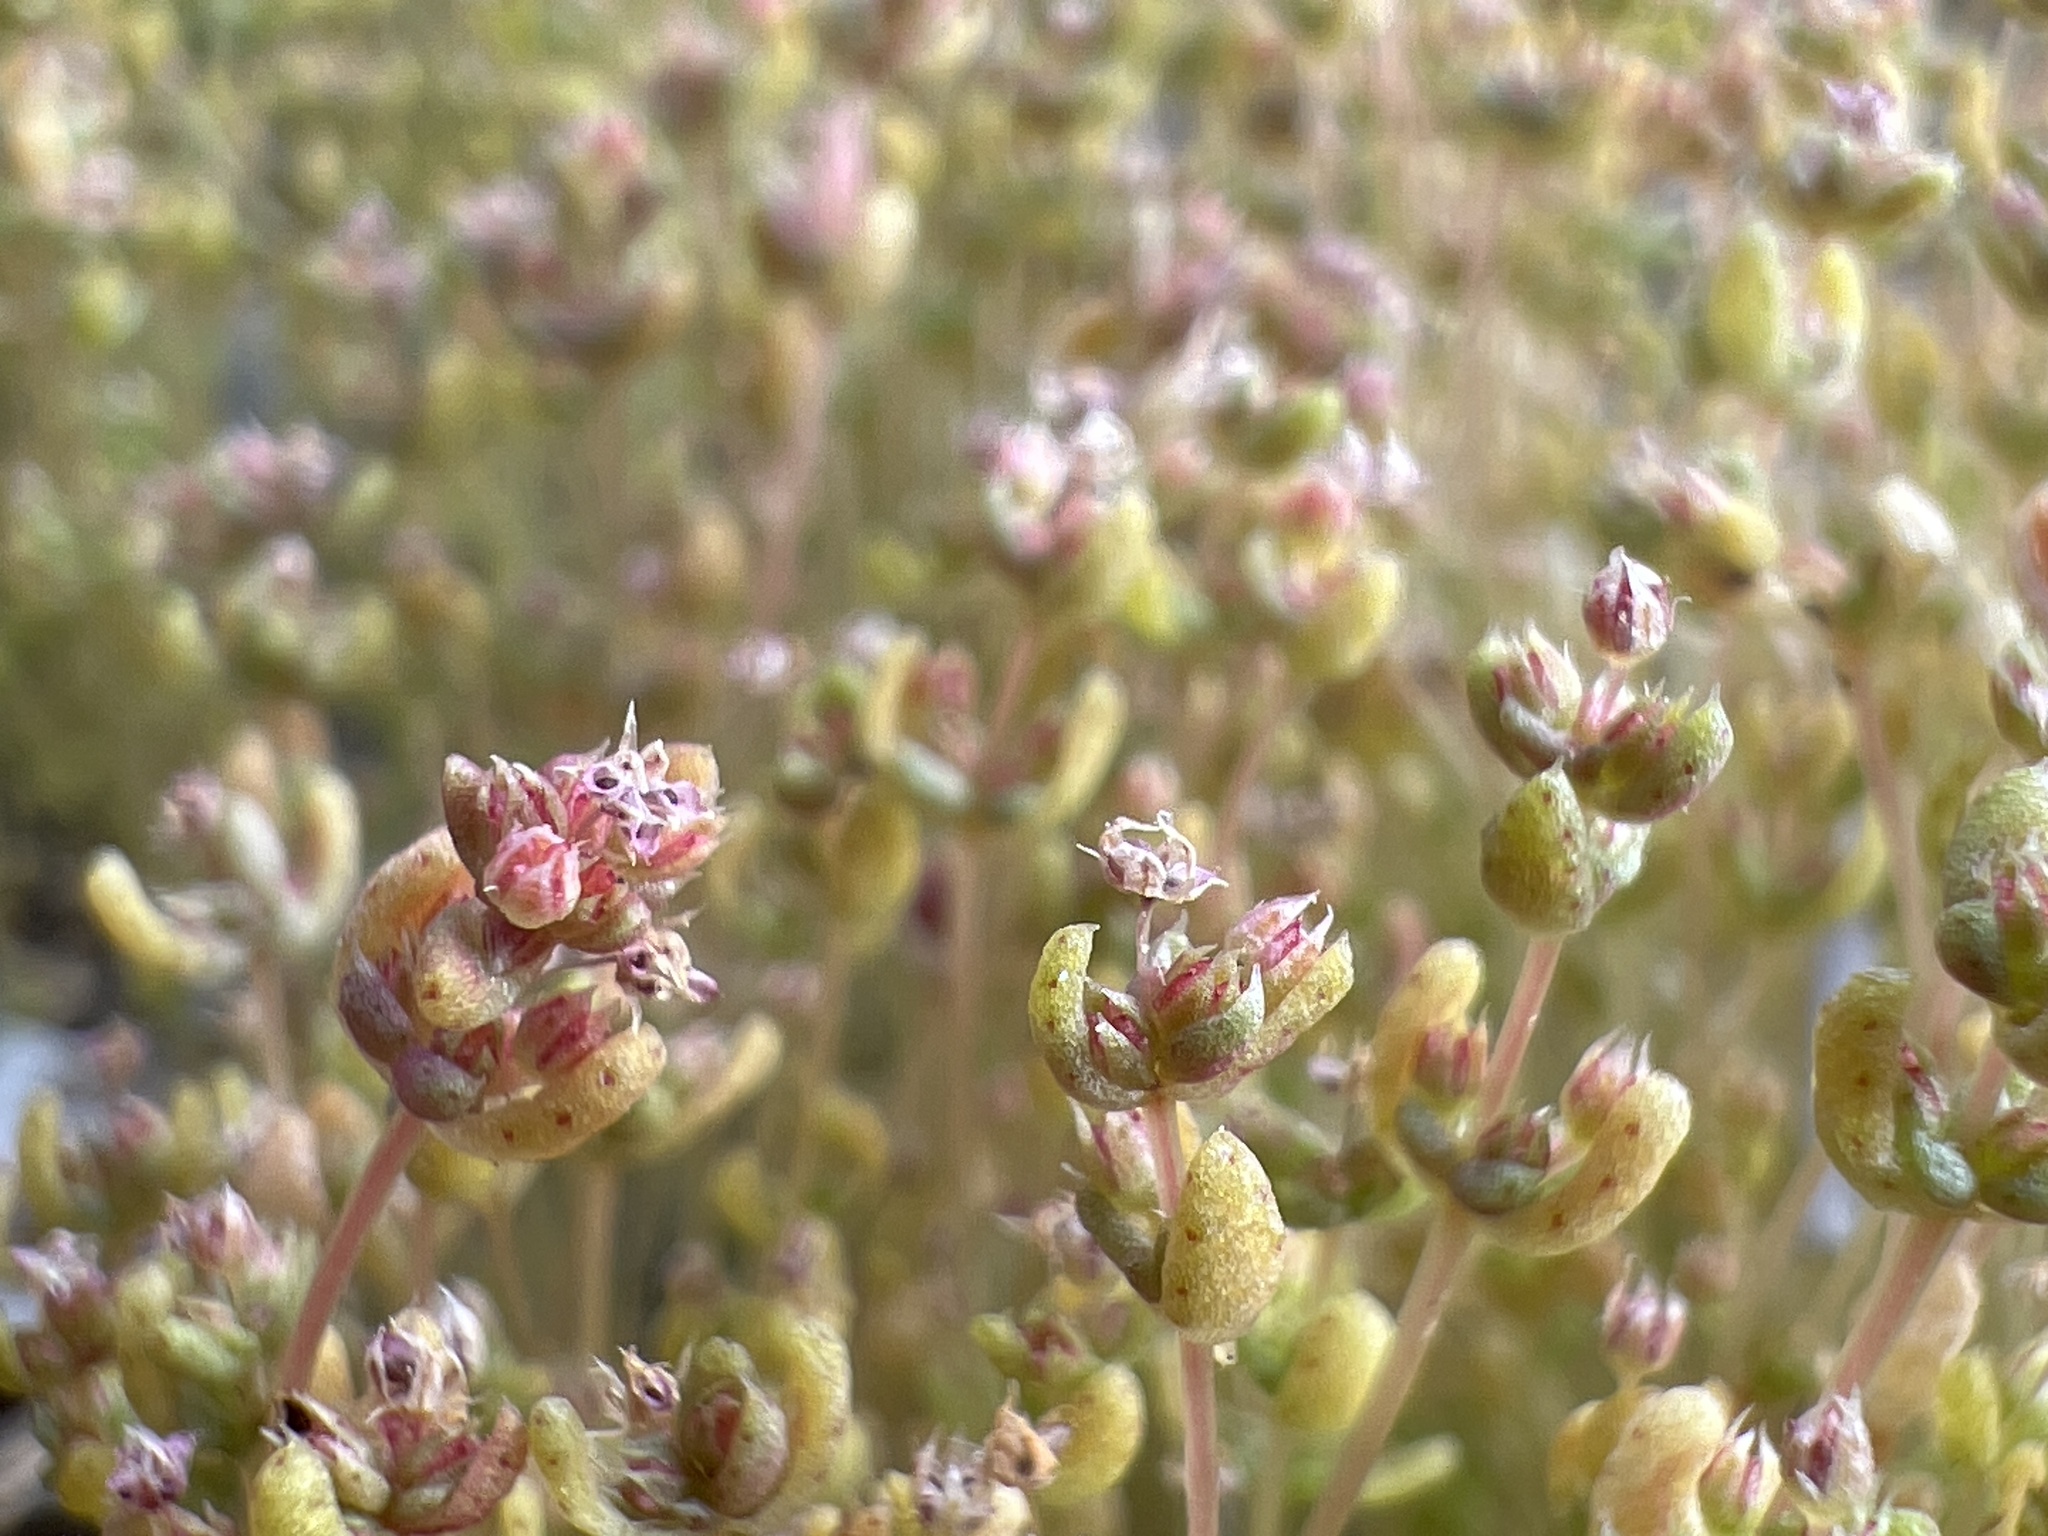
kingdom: Plantae
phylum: Tracheophyta
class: Magnoliopsida
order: Saxifragales
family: Crassulaceae
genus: Crassula
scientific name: Crassula connata
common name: Erect pygmyweed
